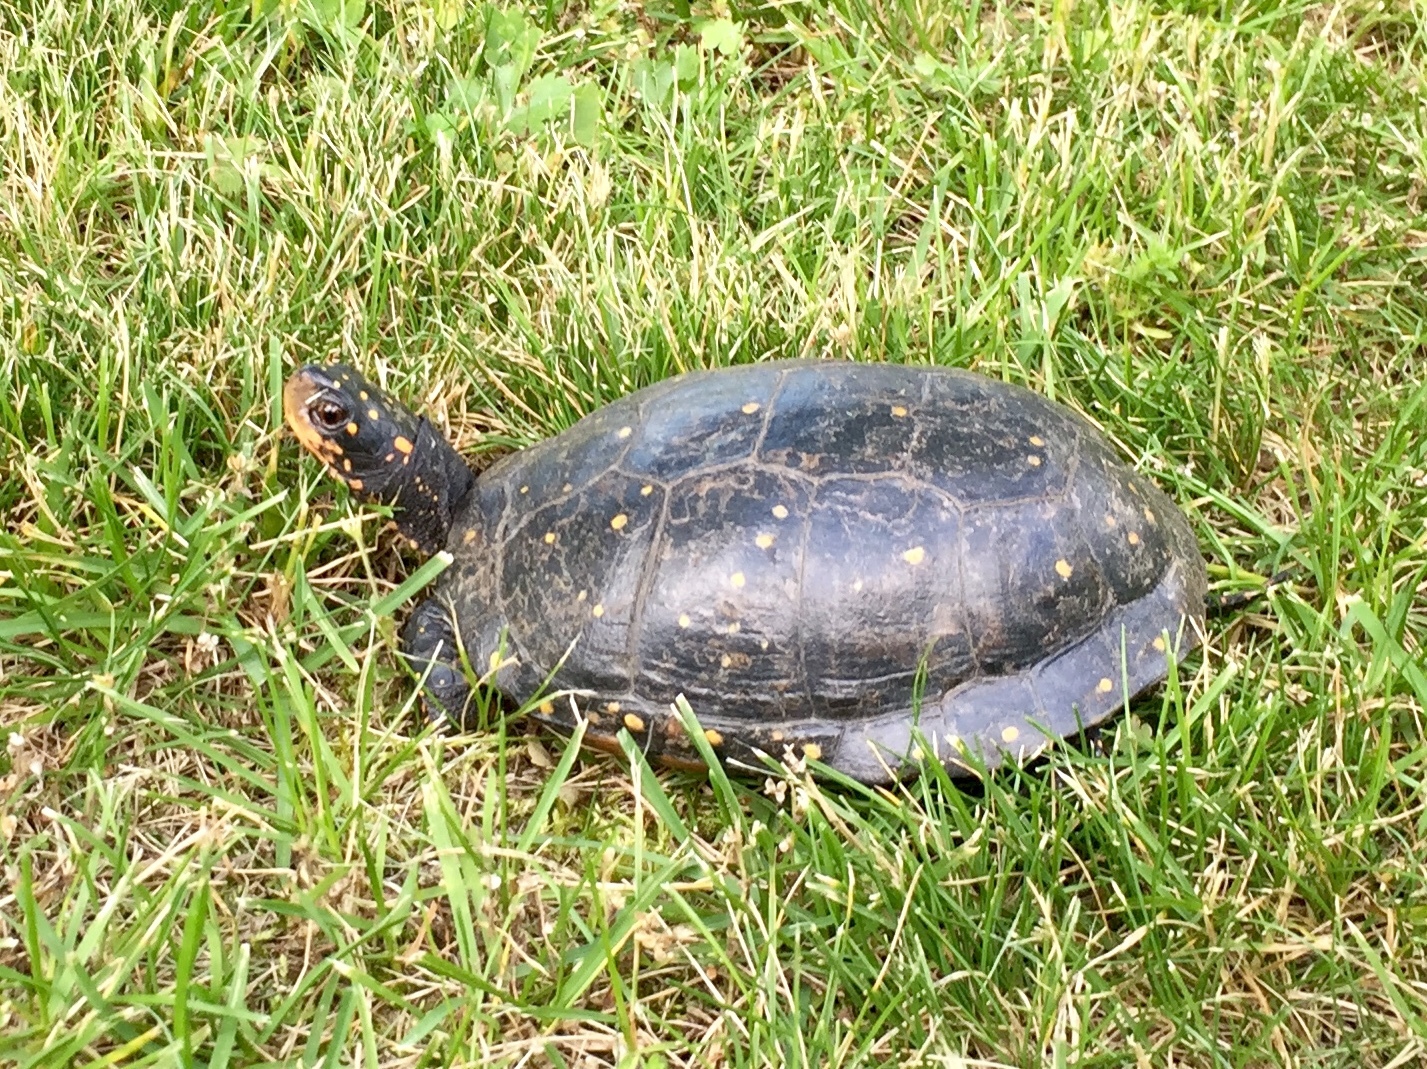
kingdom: Animalia
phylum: Chordata
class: Testudines
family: Emydidae
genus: Clemmys
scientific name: Clemmys guttata
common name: Spotted turtle
